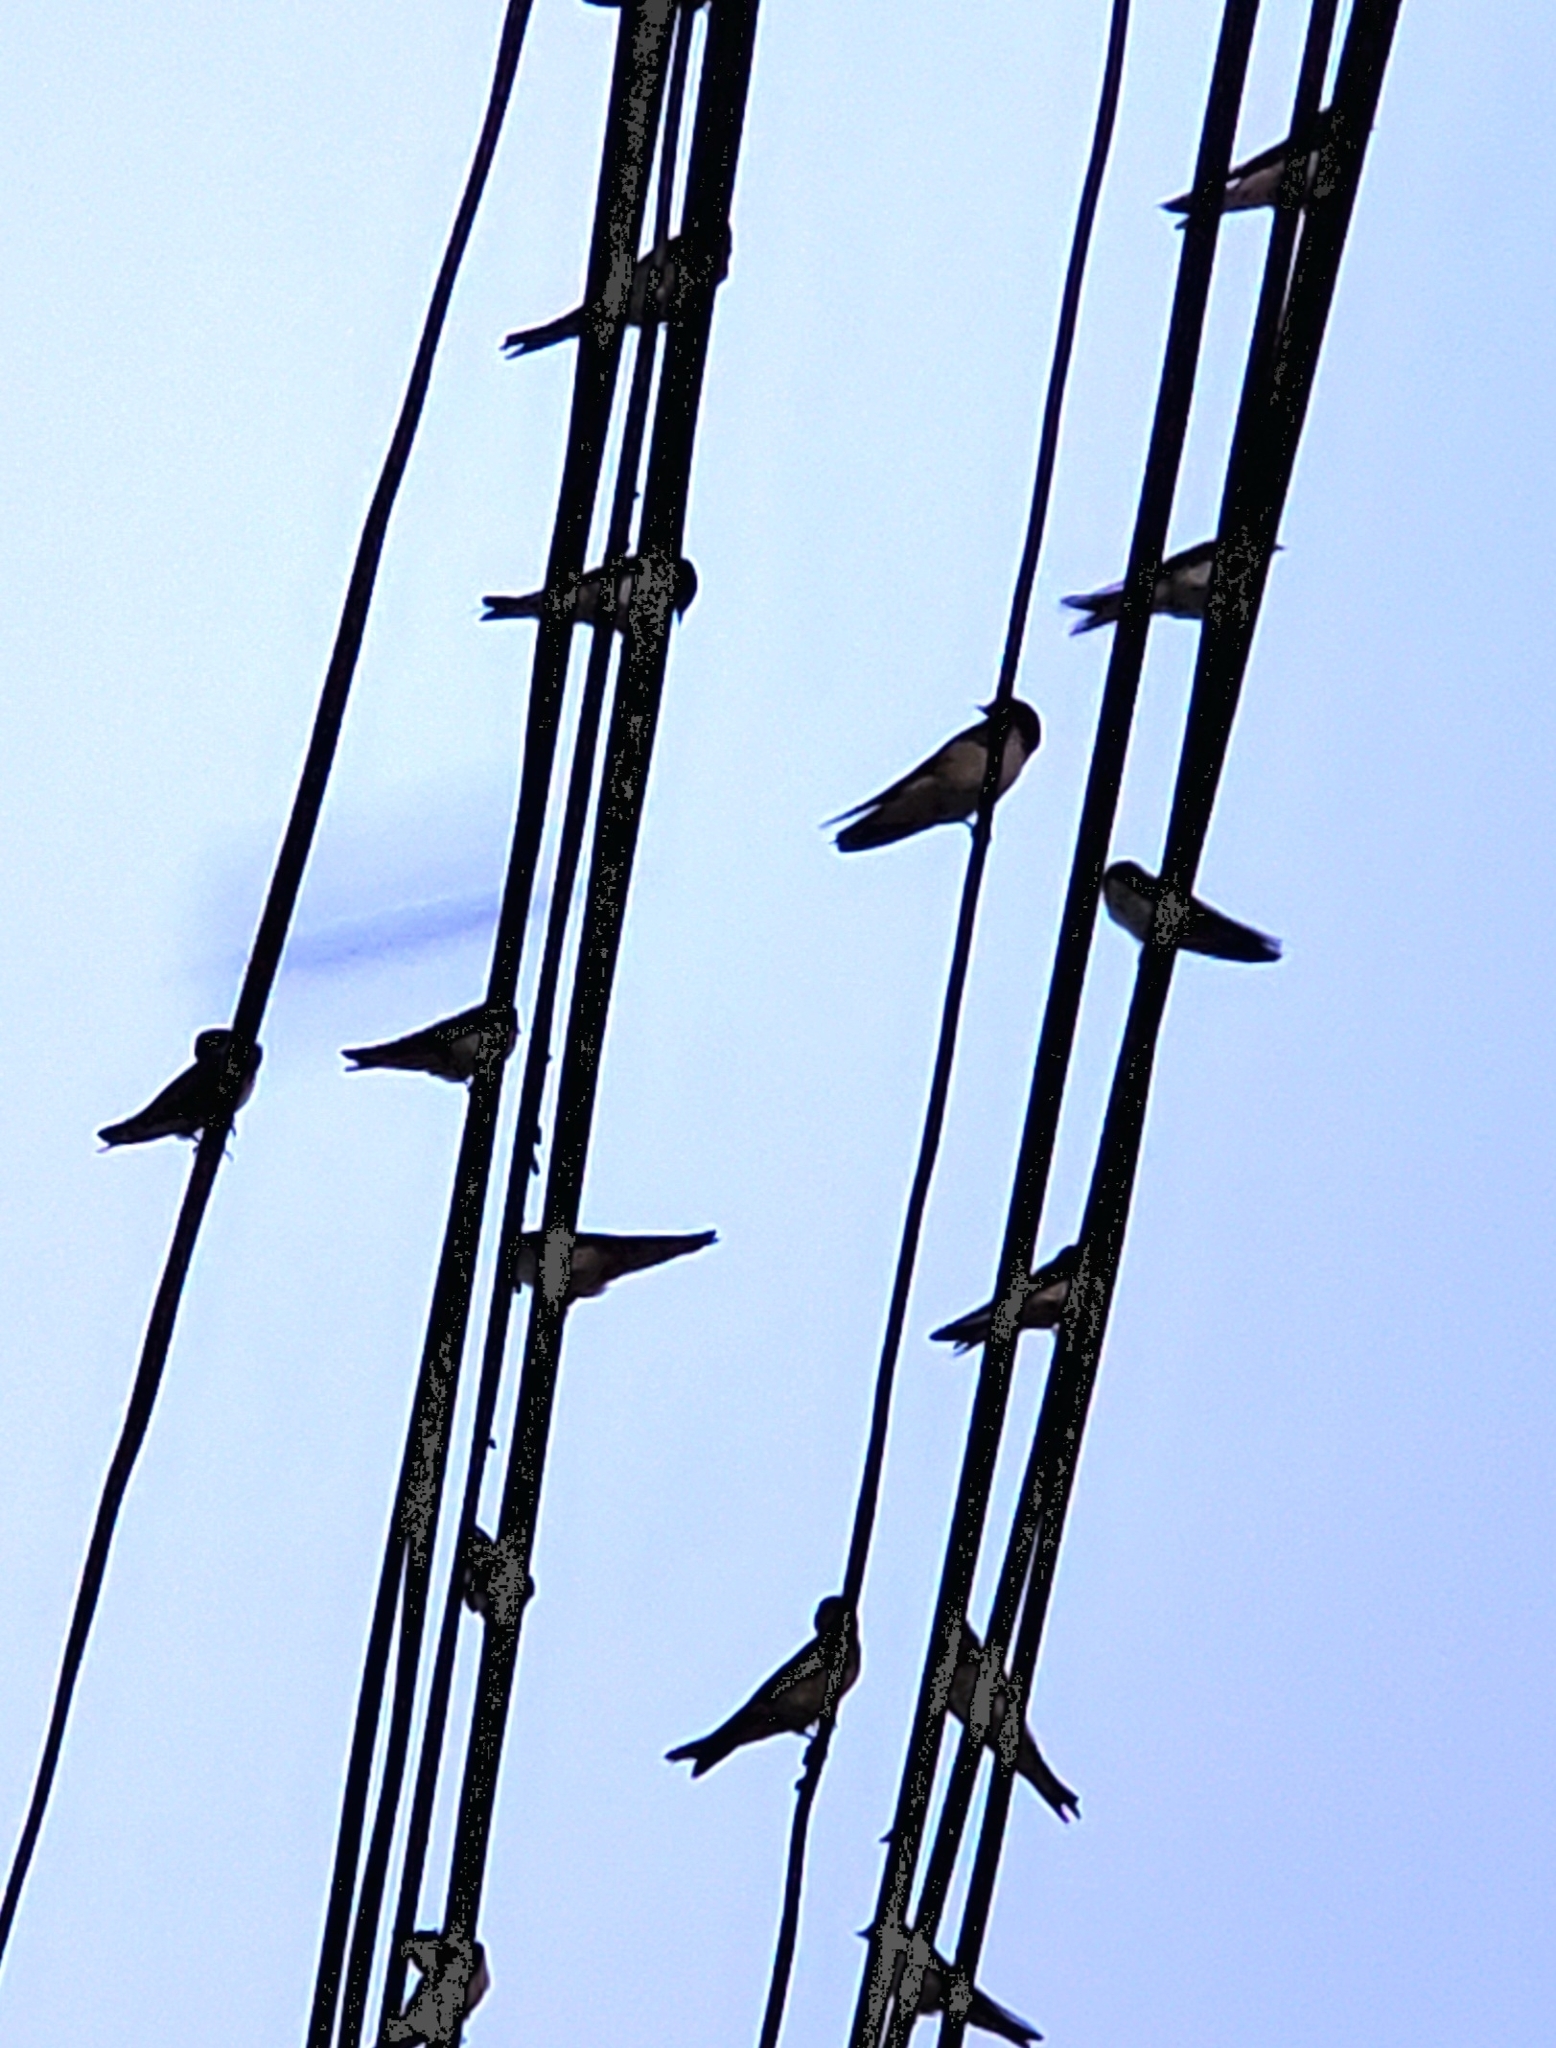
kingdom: Animalia
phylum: Chordata
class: Aves
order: Passeriformes
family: Hirundinidae
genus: Hirundo
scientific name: Hirundo tahitica
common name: Pacific swallow
